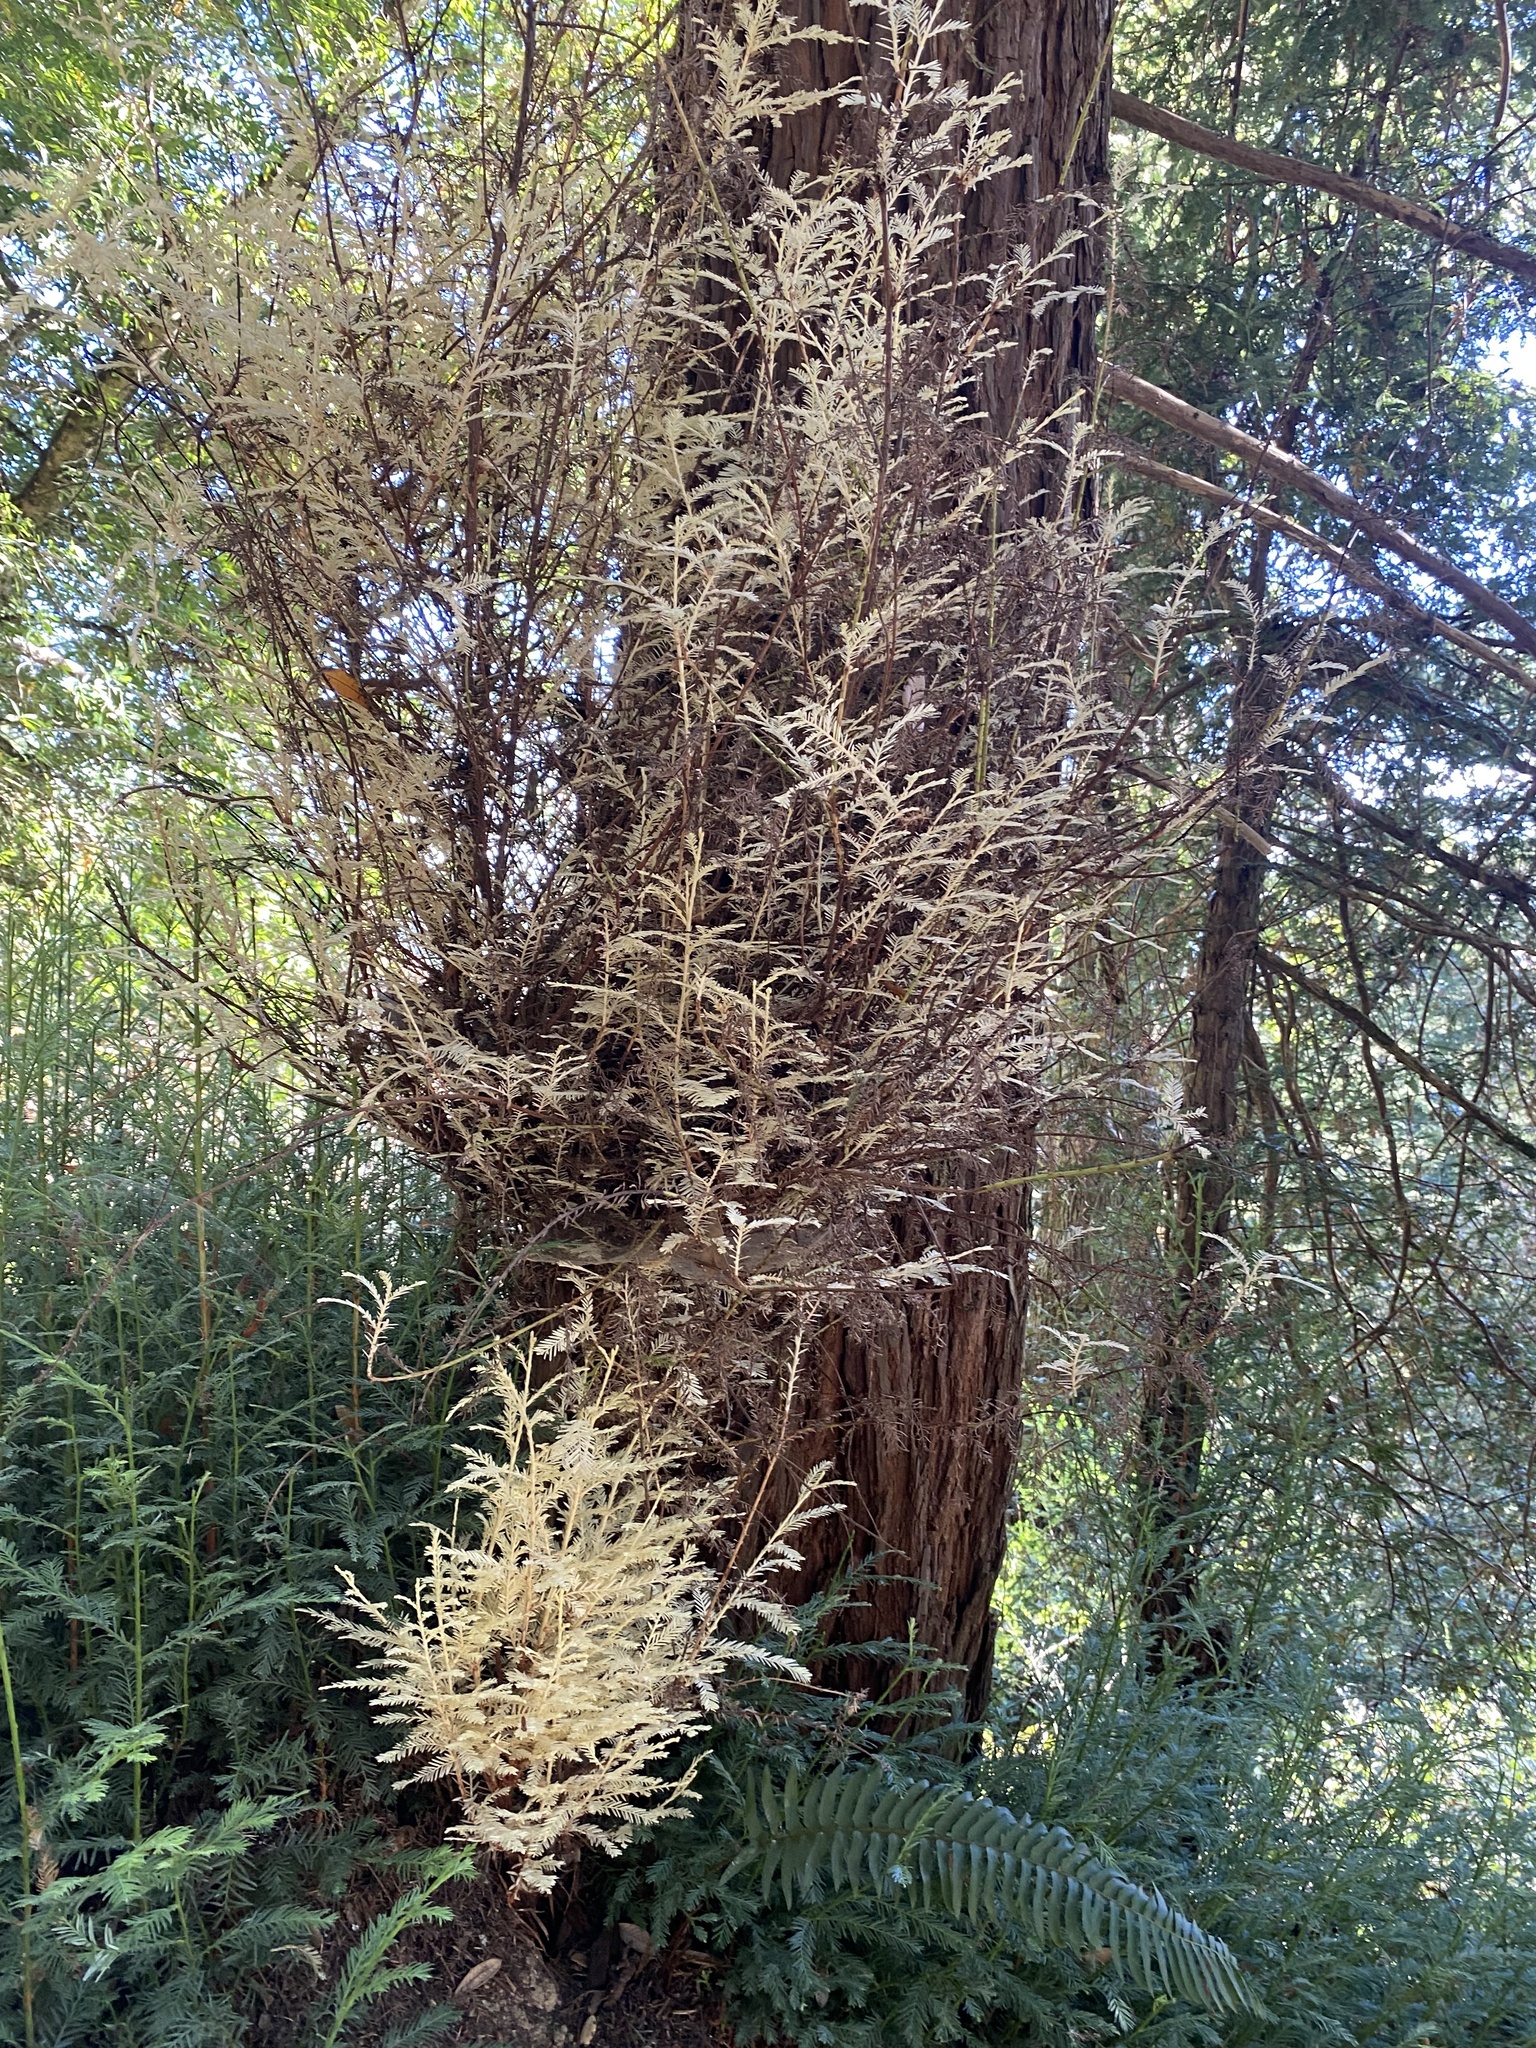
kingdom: Plantae
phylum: Tracheophyta
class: Pinopsida
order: Pinales
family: Cupressaceae
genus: Sequoia
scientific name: Sequoia sempervirens
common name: Coast redwood
